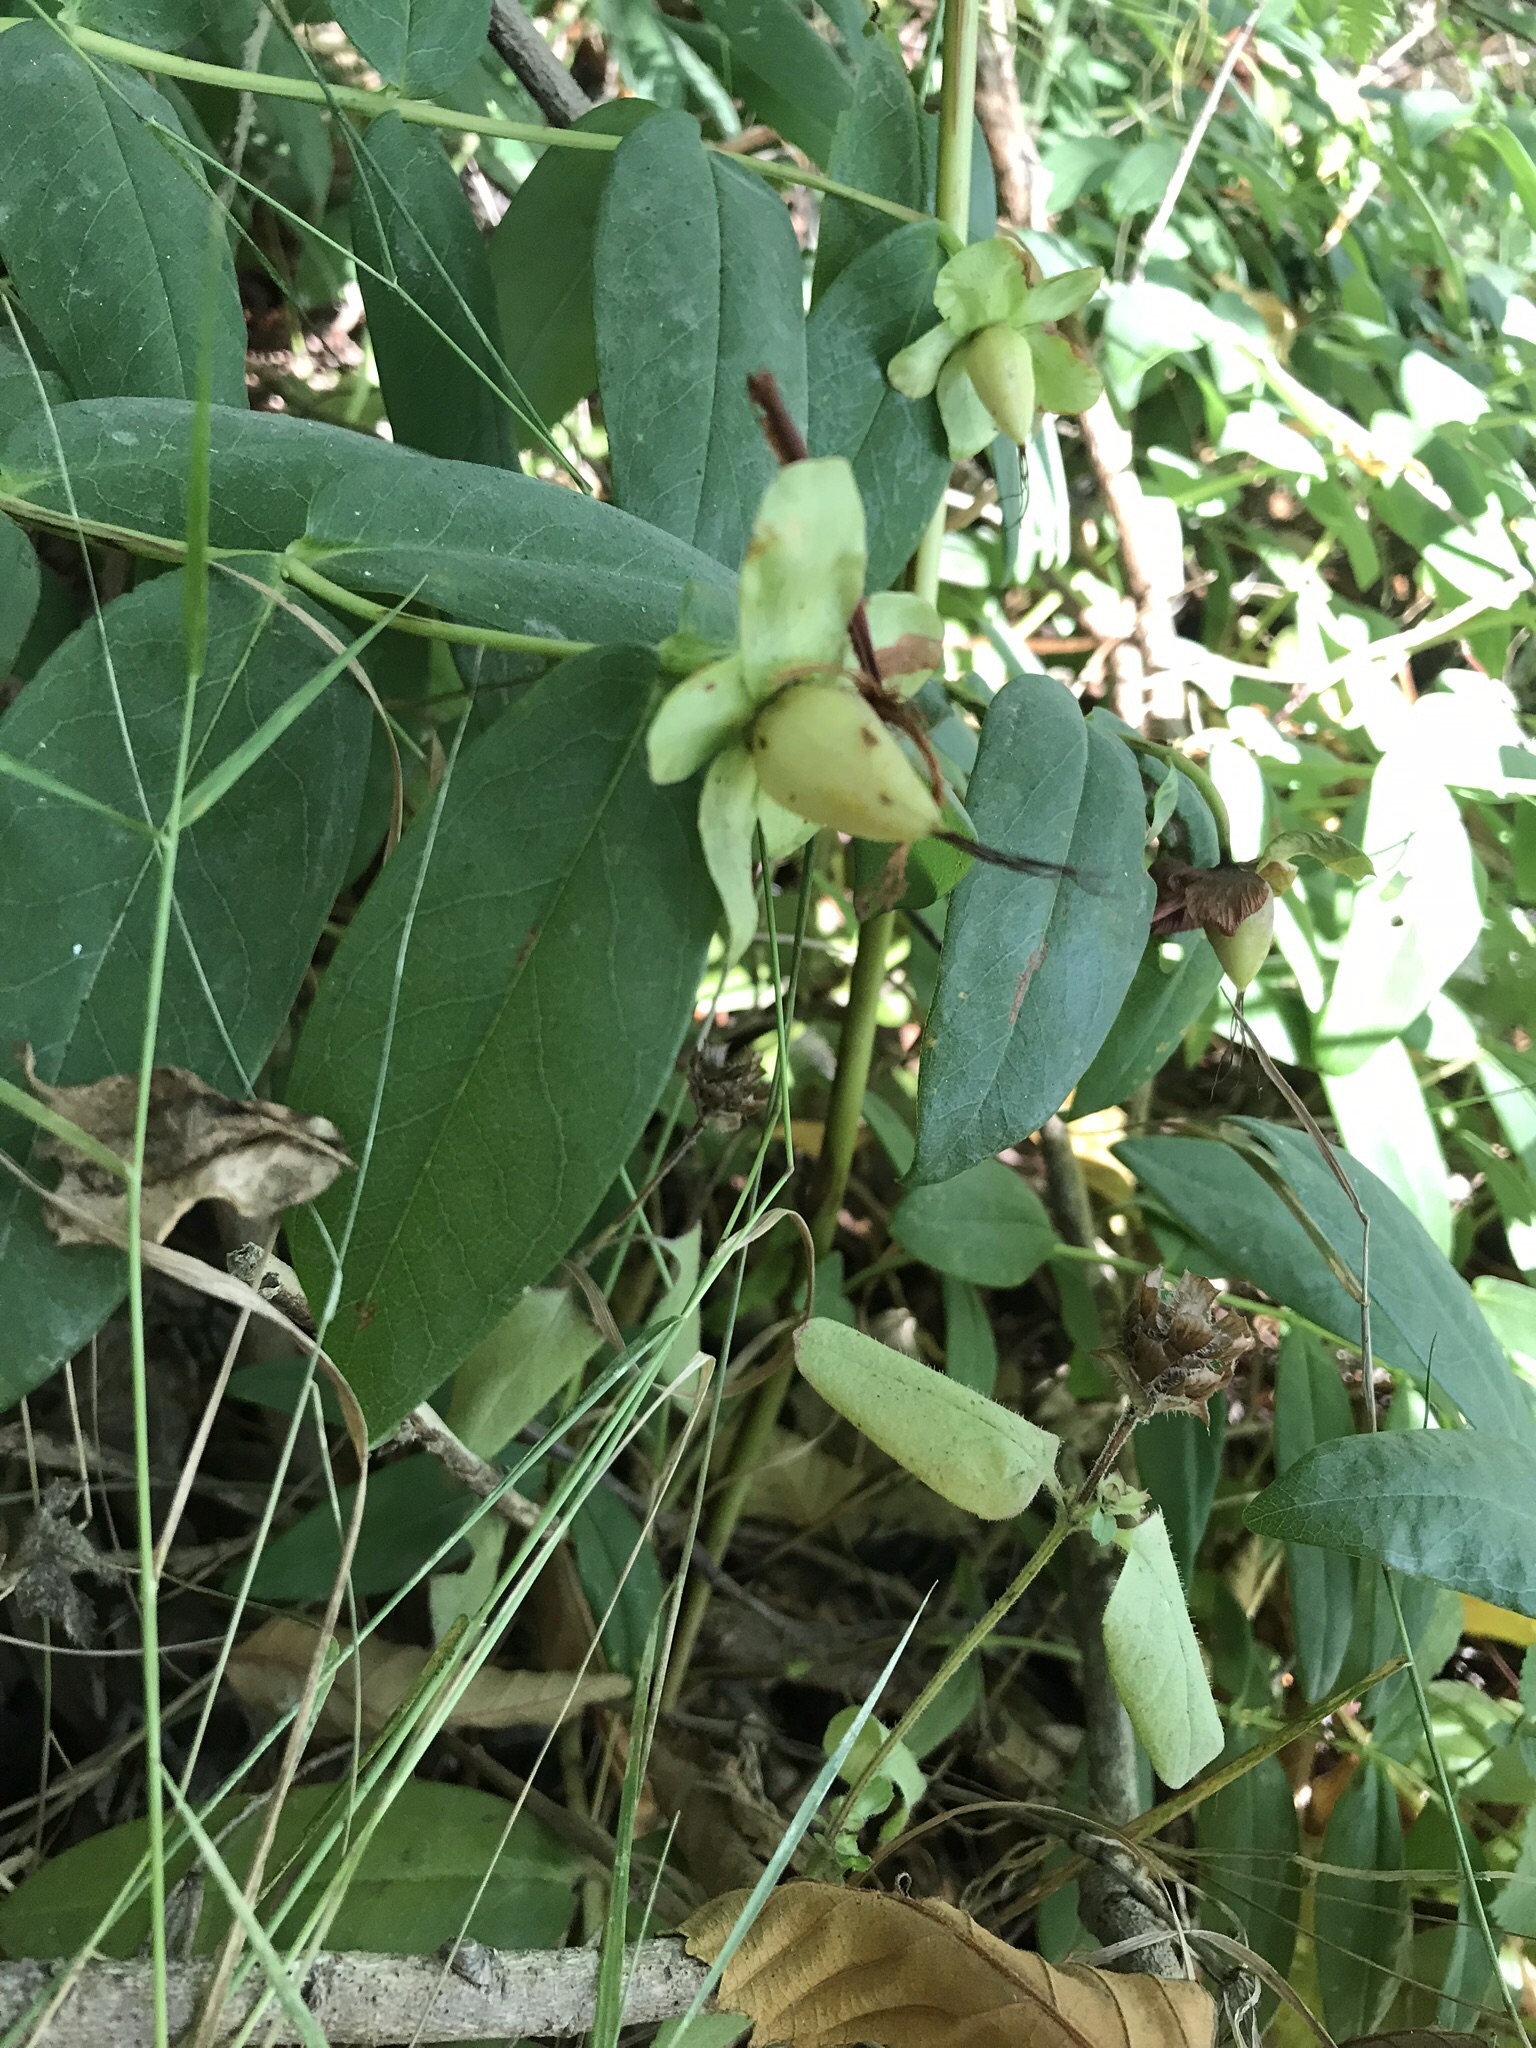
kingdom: Plantae
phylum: Tracheophyta
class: Magnoliopsida
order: Malpighiales
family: Hypericaceae
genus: Hypericum
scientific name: Hypericum calycinum
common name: Rose-of-sharon
